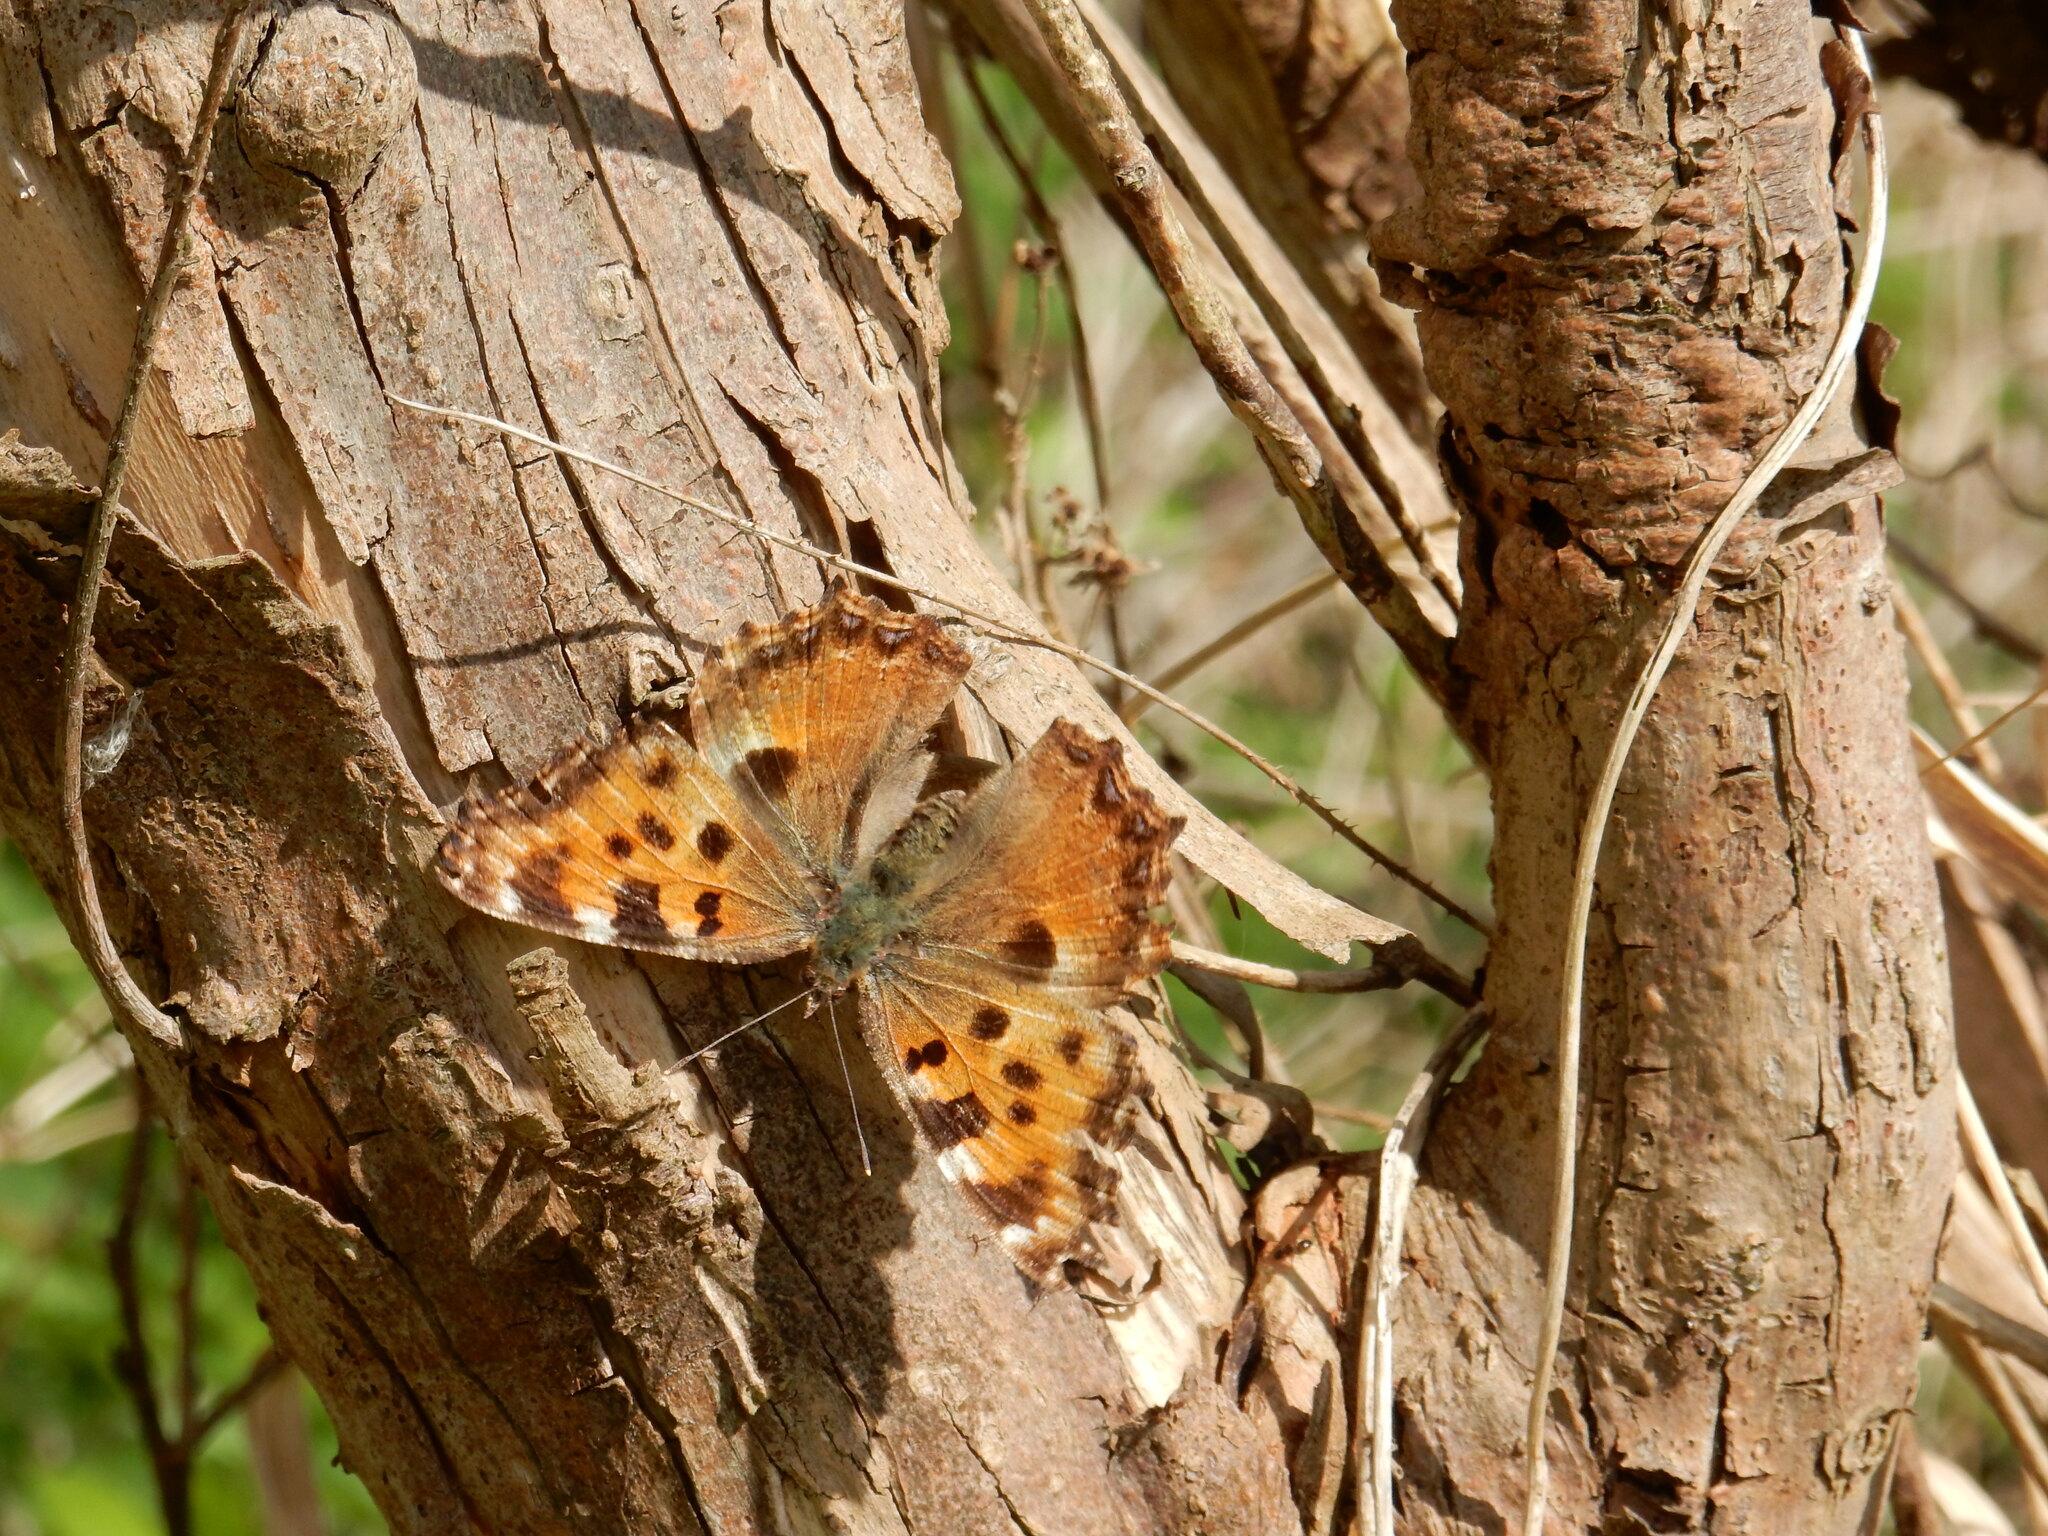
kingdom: Animalia
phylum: Arthropoda
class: Insecta
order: Lepidoptera
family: Nymphalidae
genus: Nymphalis
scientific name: Nymphalis polychloros
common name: Large tortoiseshell
